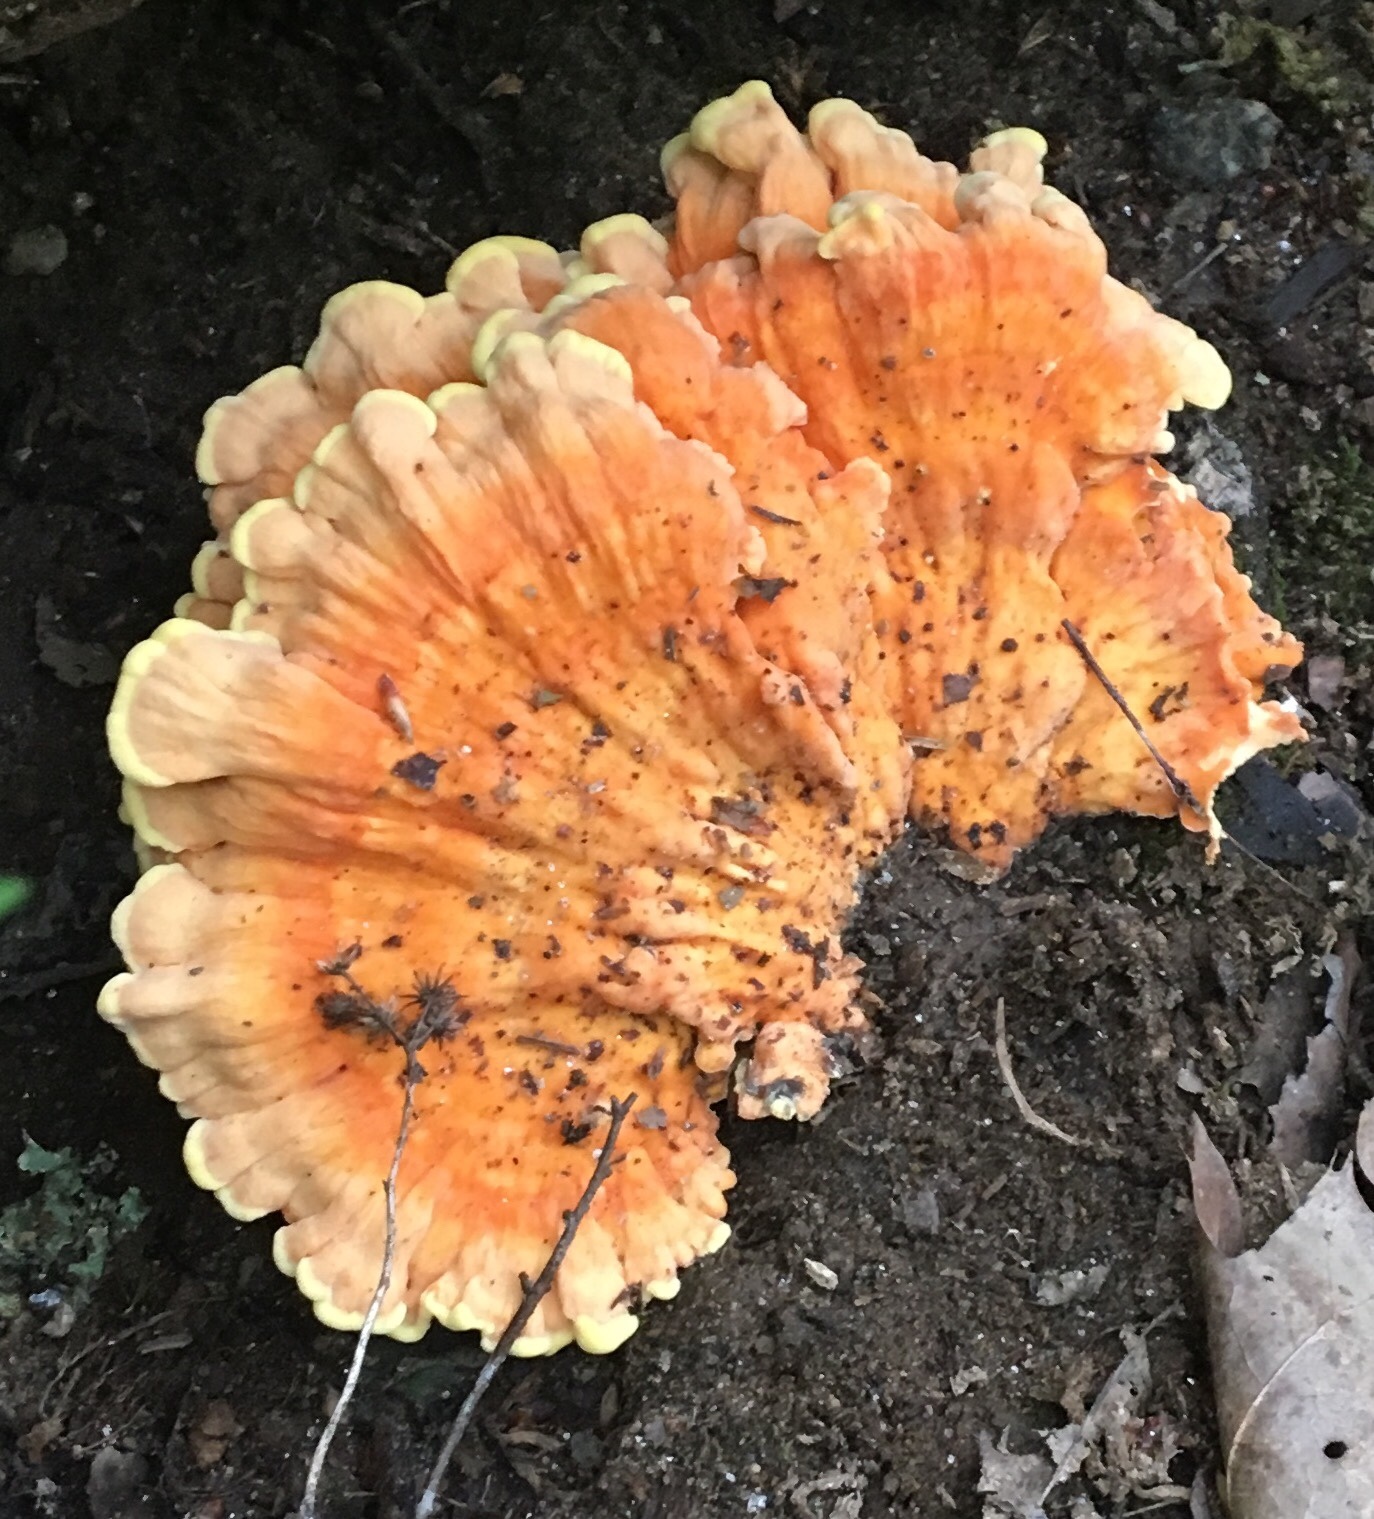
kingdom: Fungi
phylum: Basidiomycota
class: Agaricomycetes
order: Polyporales
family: Laetiporaceae
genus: Laetiporus
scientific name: Laetiporus sulphureus
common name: Chicken of the woods
